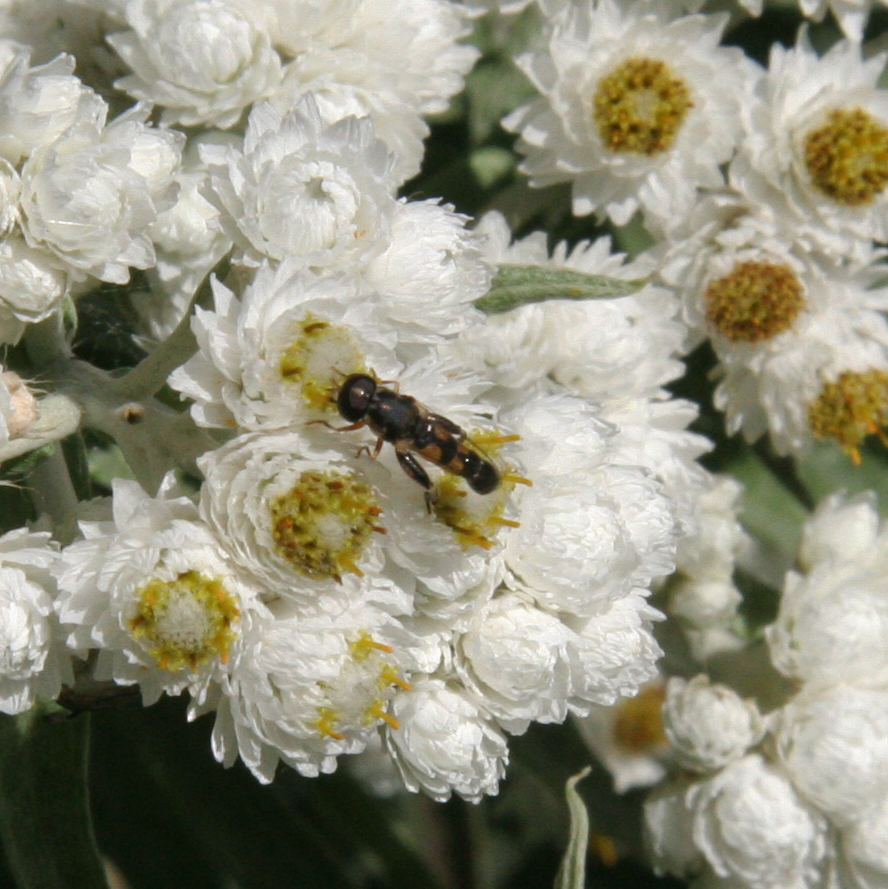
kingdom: Animalia
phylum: Arthropoda
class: Insecta
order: Diptera
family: Syrphidae
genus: Syritta
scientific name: Syritta pipiens
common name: Hover fly
